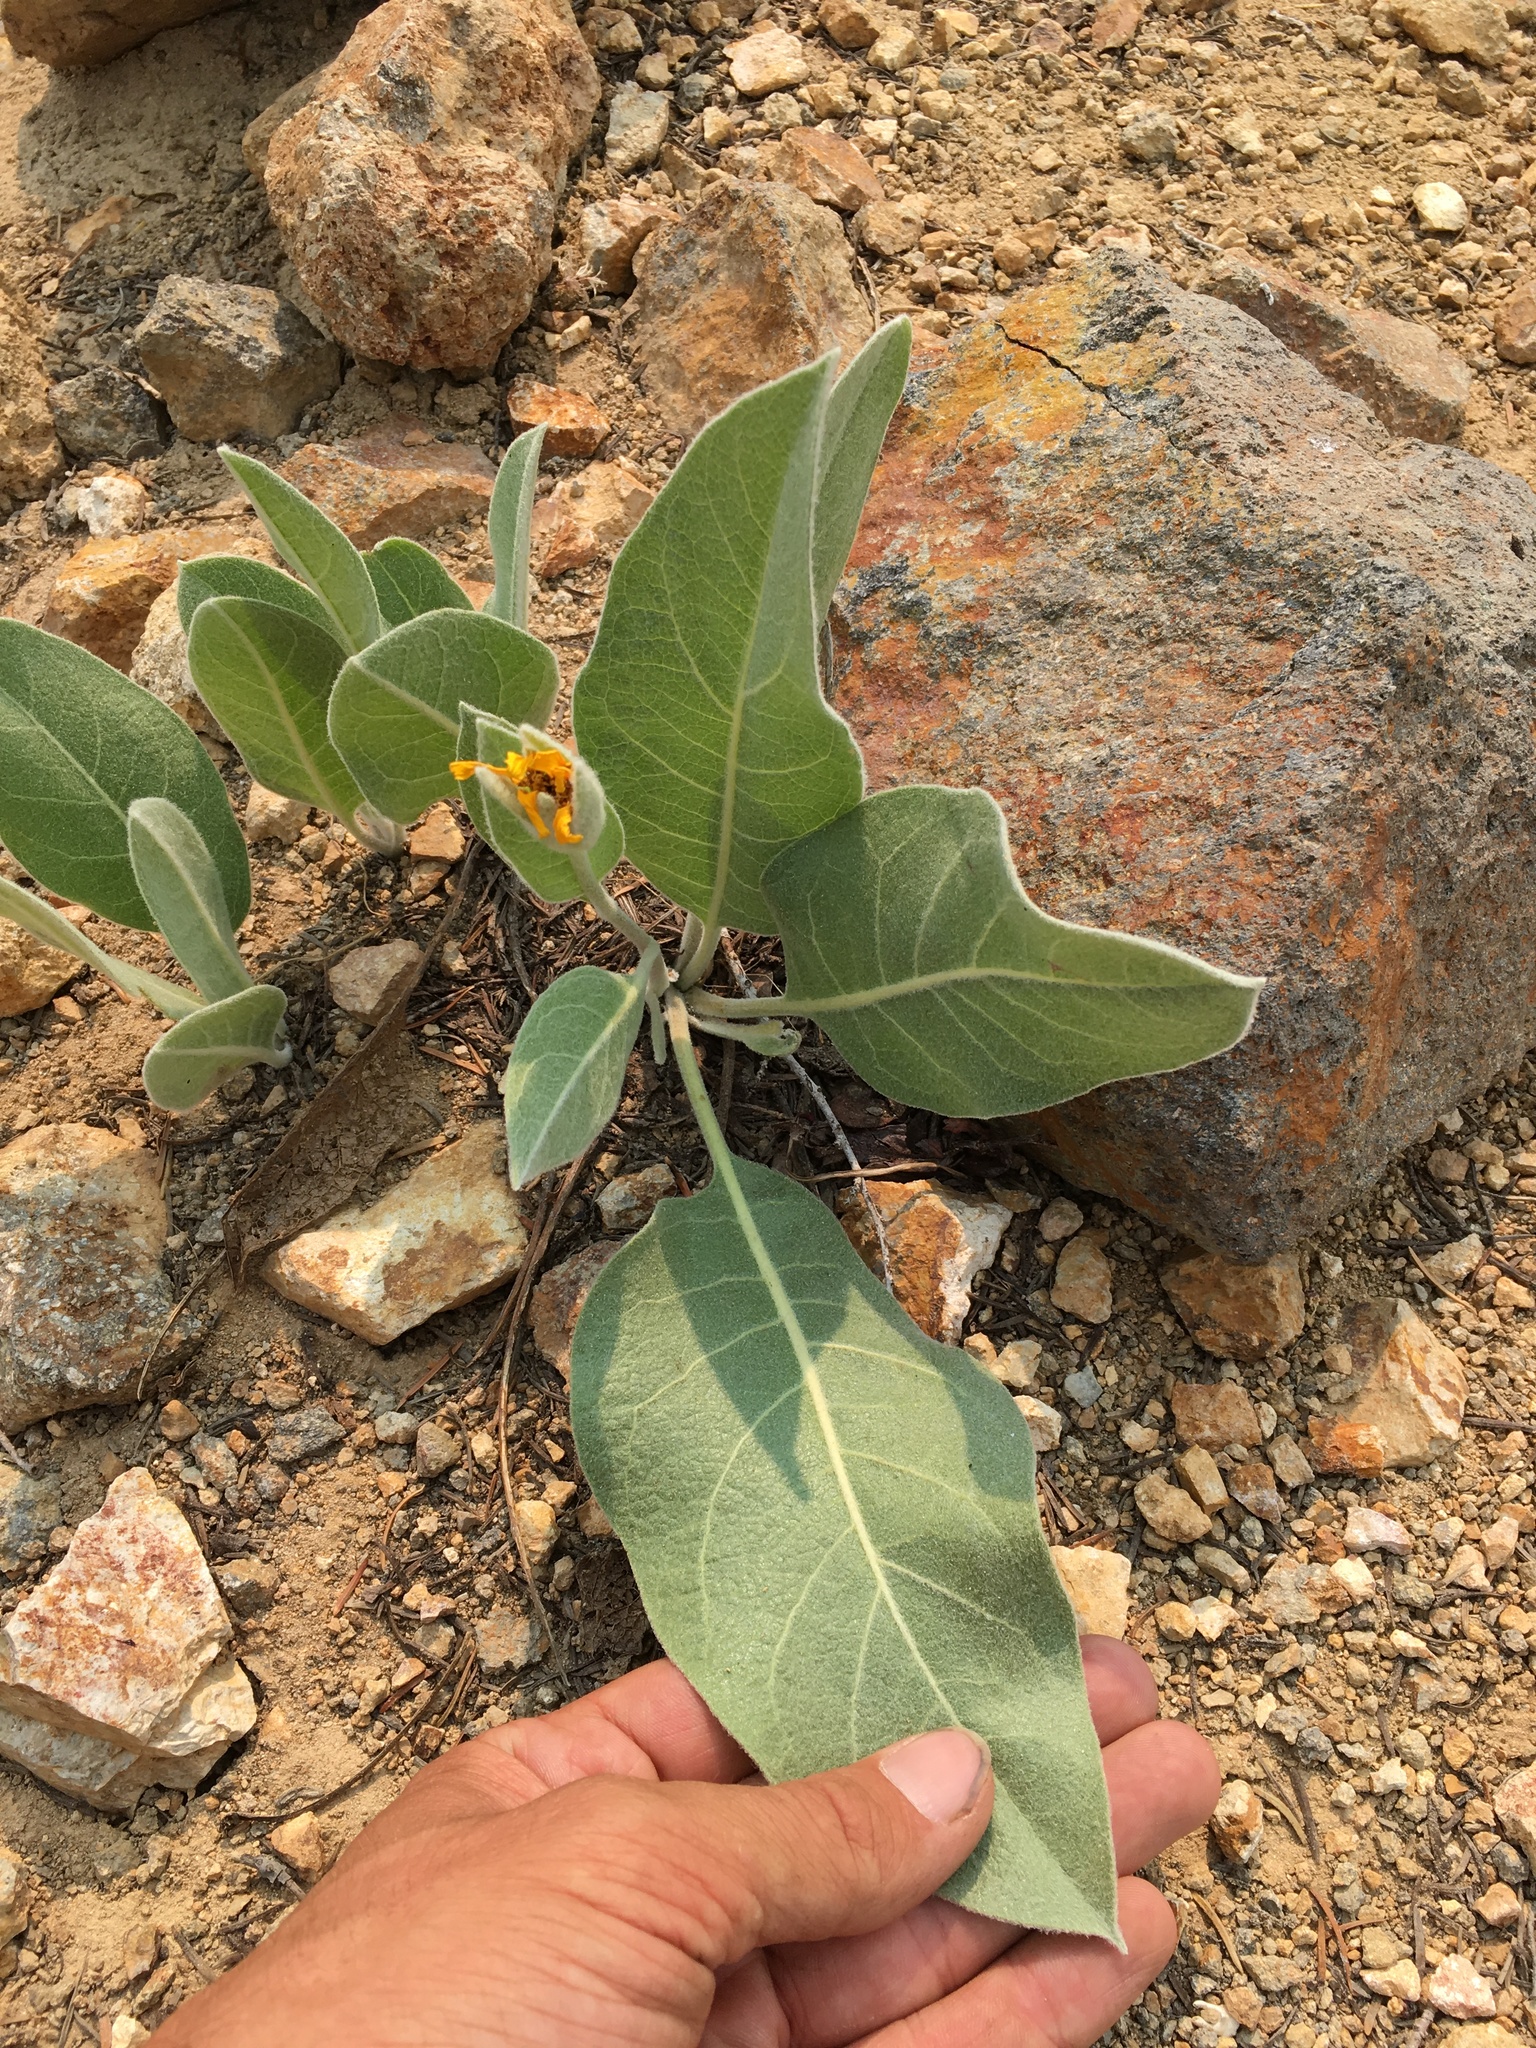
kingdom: Plantae
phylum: Tracheophyta
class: Magnoliopsida
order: Asterales
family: Asteraceae
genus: Wyethia
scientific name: Wyethia mollis
